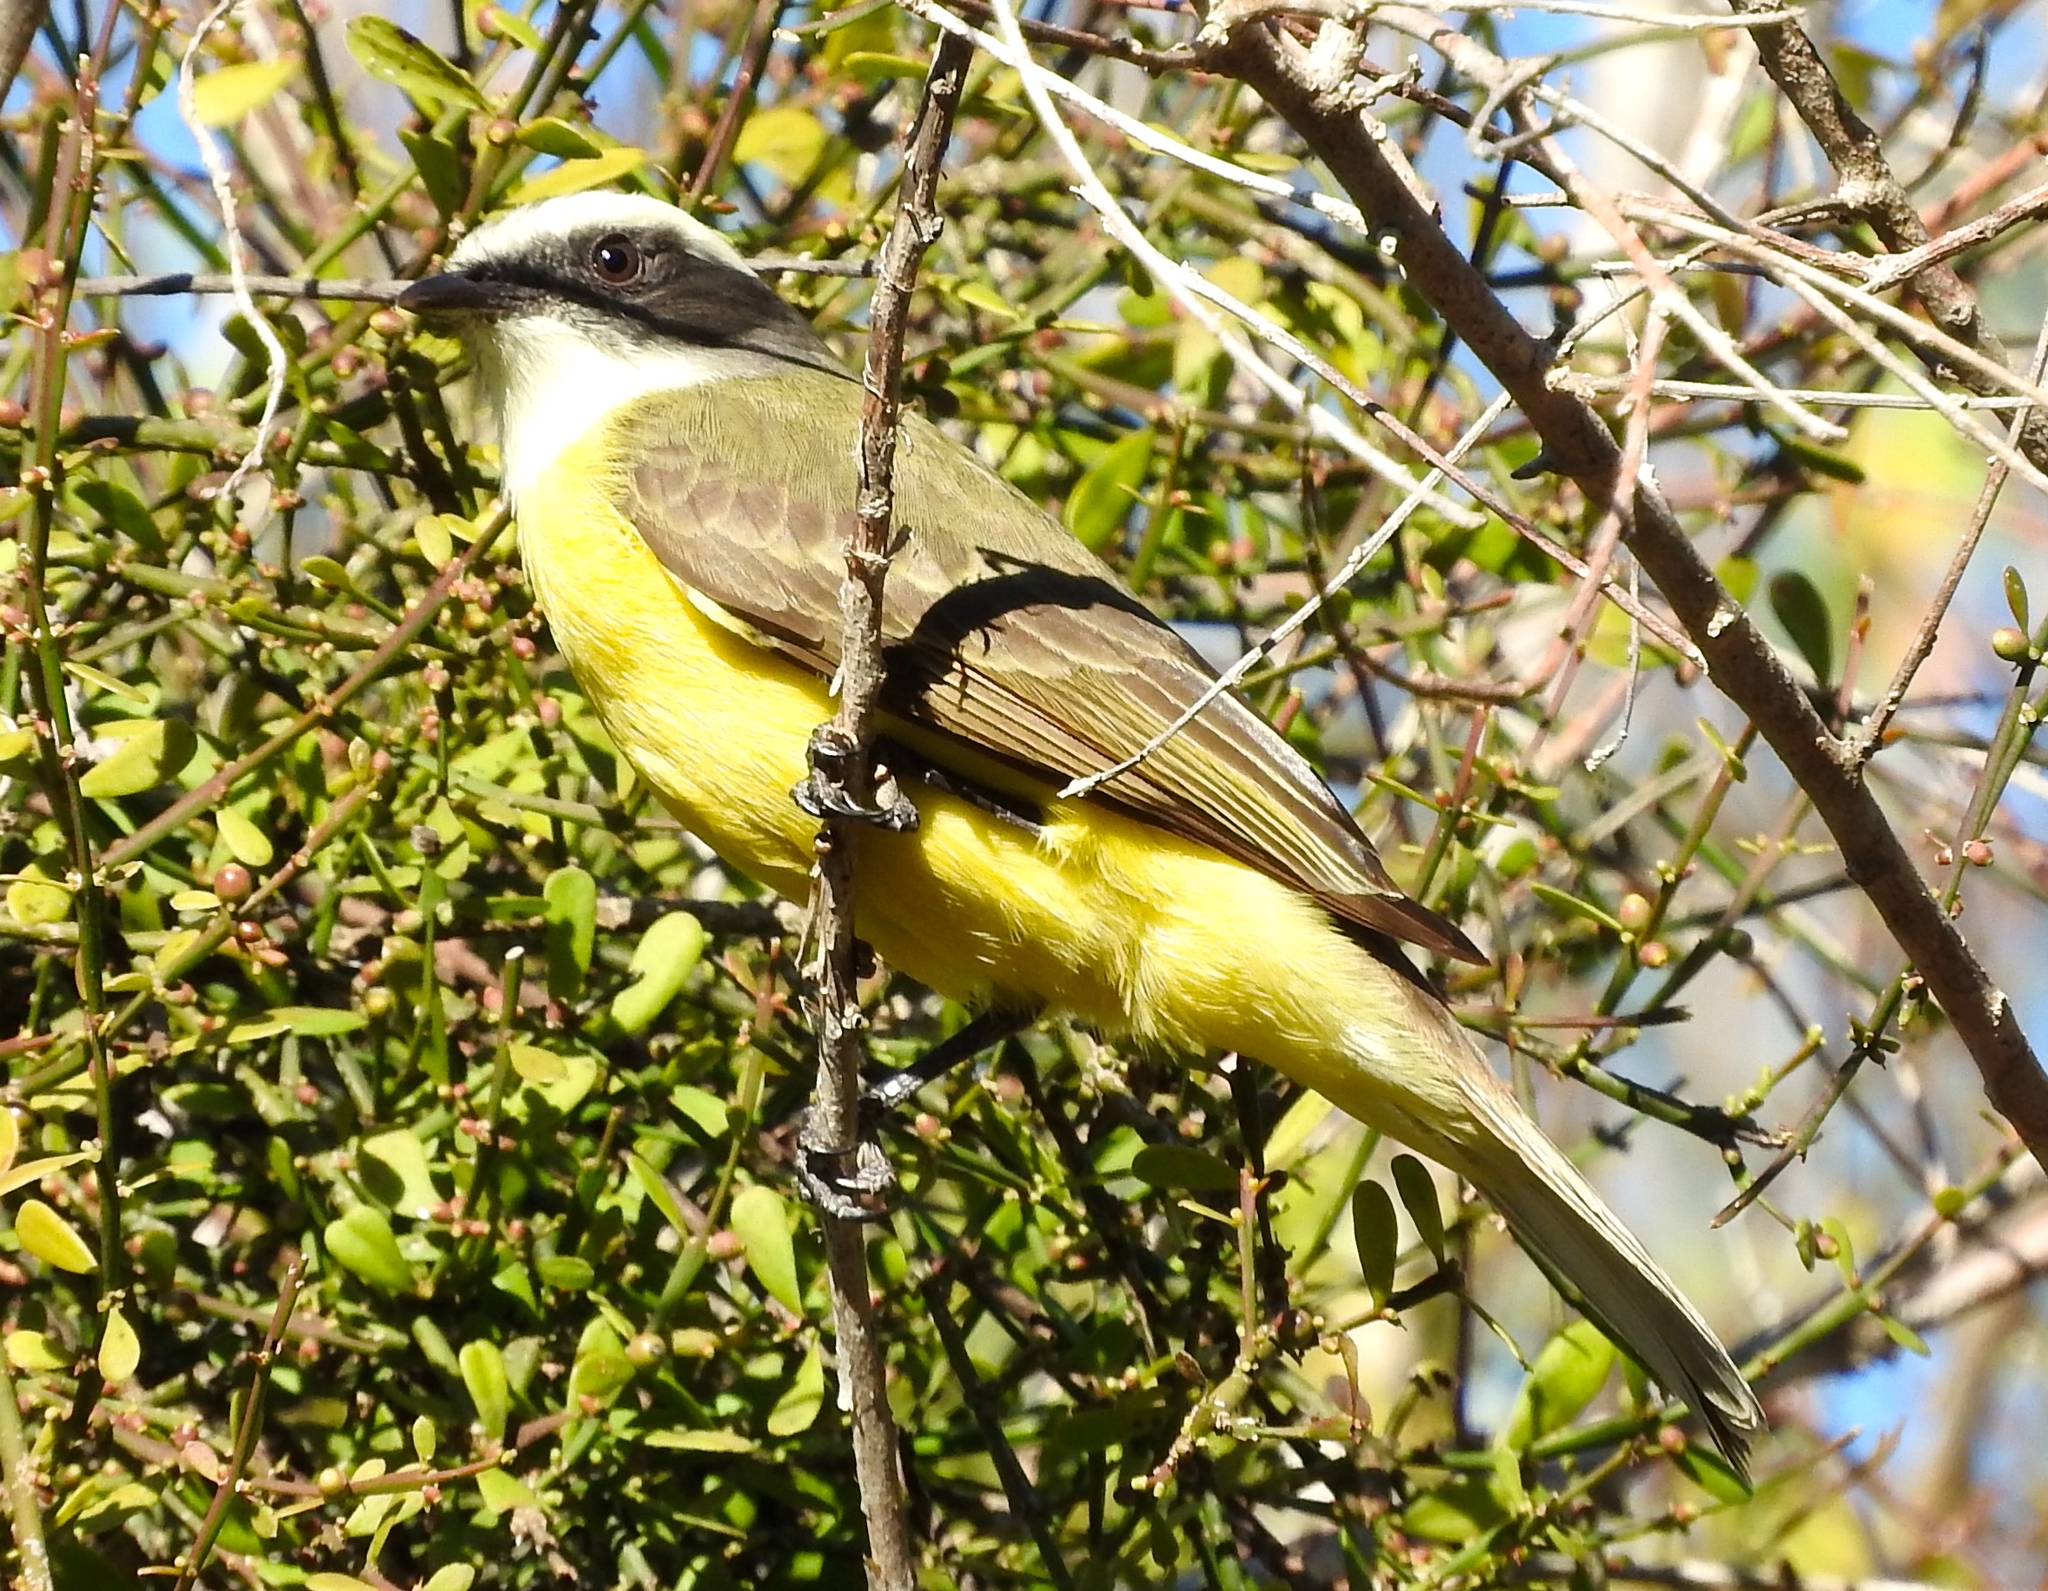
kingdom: Animalia
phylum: Chordata
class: Aves
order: Passeriformes
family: Tyrannidae
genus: Myiozetetes
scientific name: Myiozetetes similis
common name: Social flycatcher
